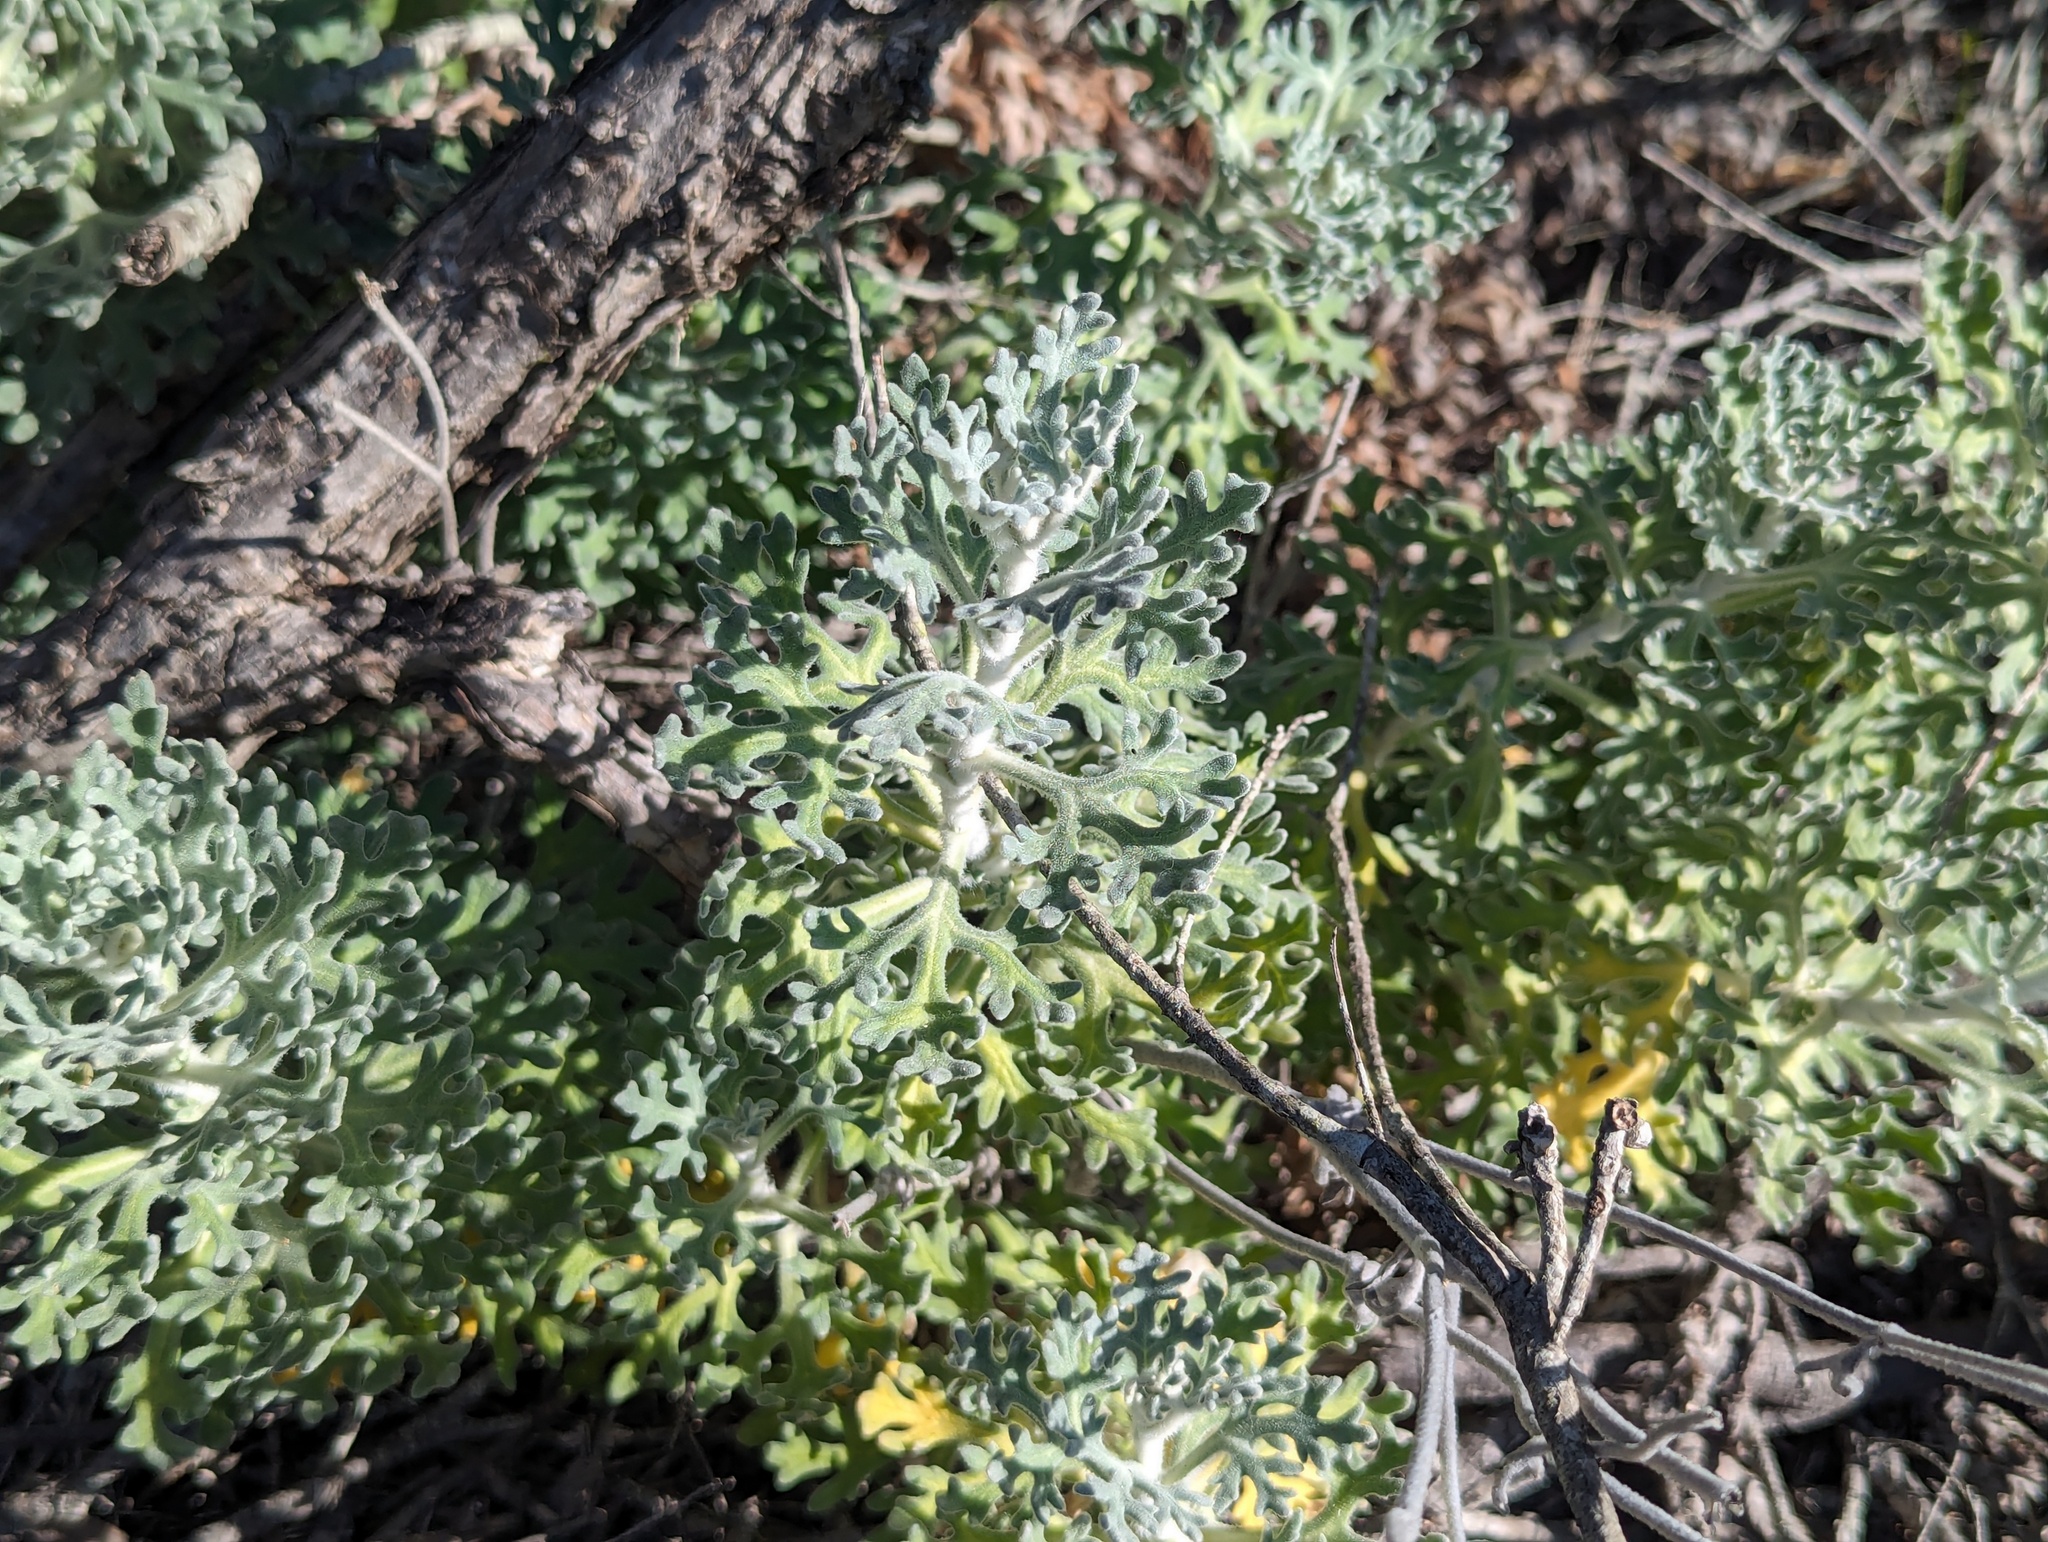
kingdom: Plantae
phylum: Tracheophyta
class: Magnoliopsida
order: Apiales
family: Apiaceae
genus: Actinotus
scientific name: Actinotus helianthi
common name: Flannel-flower
